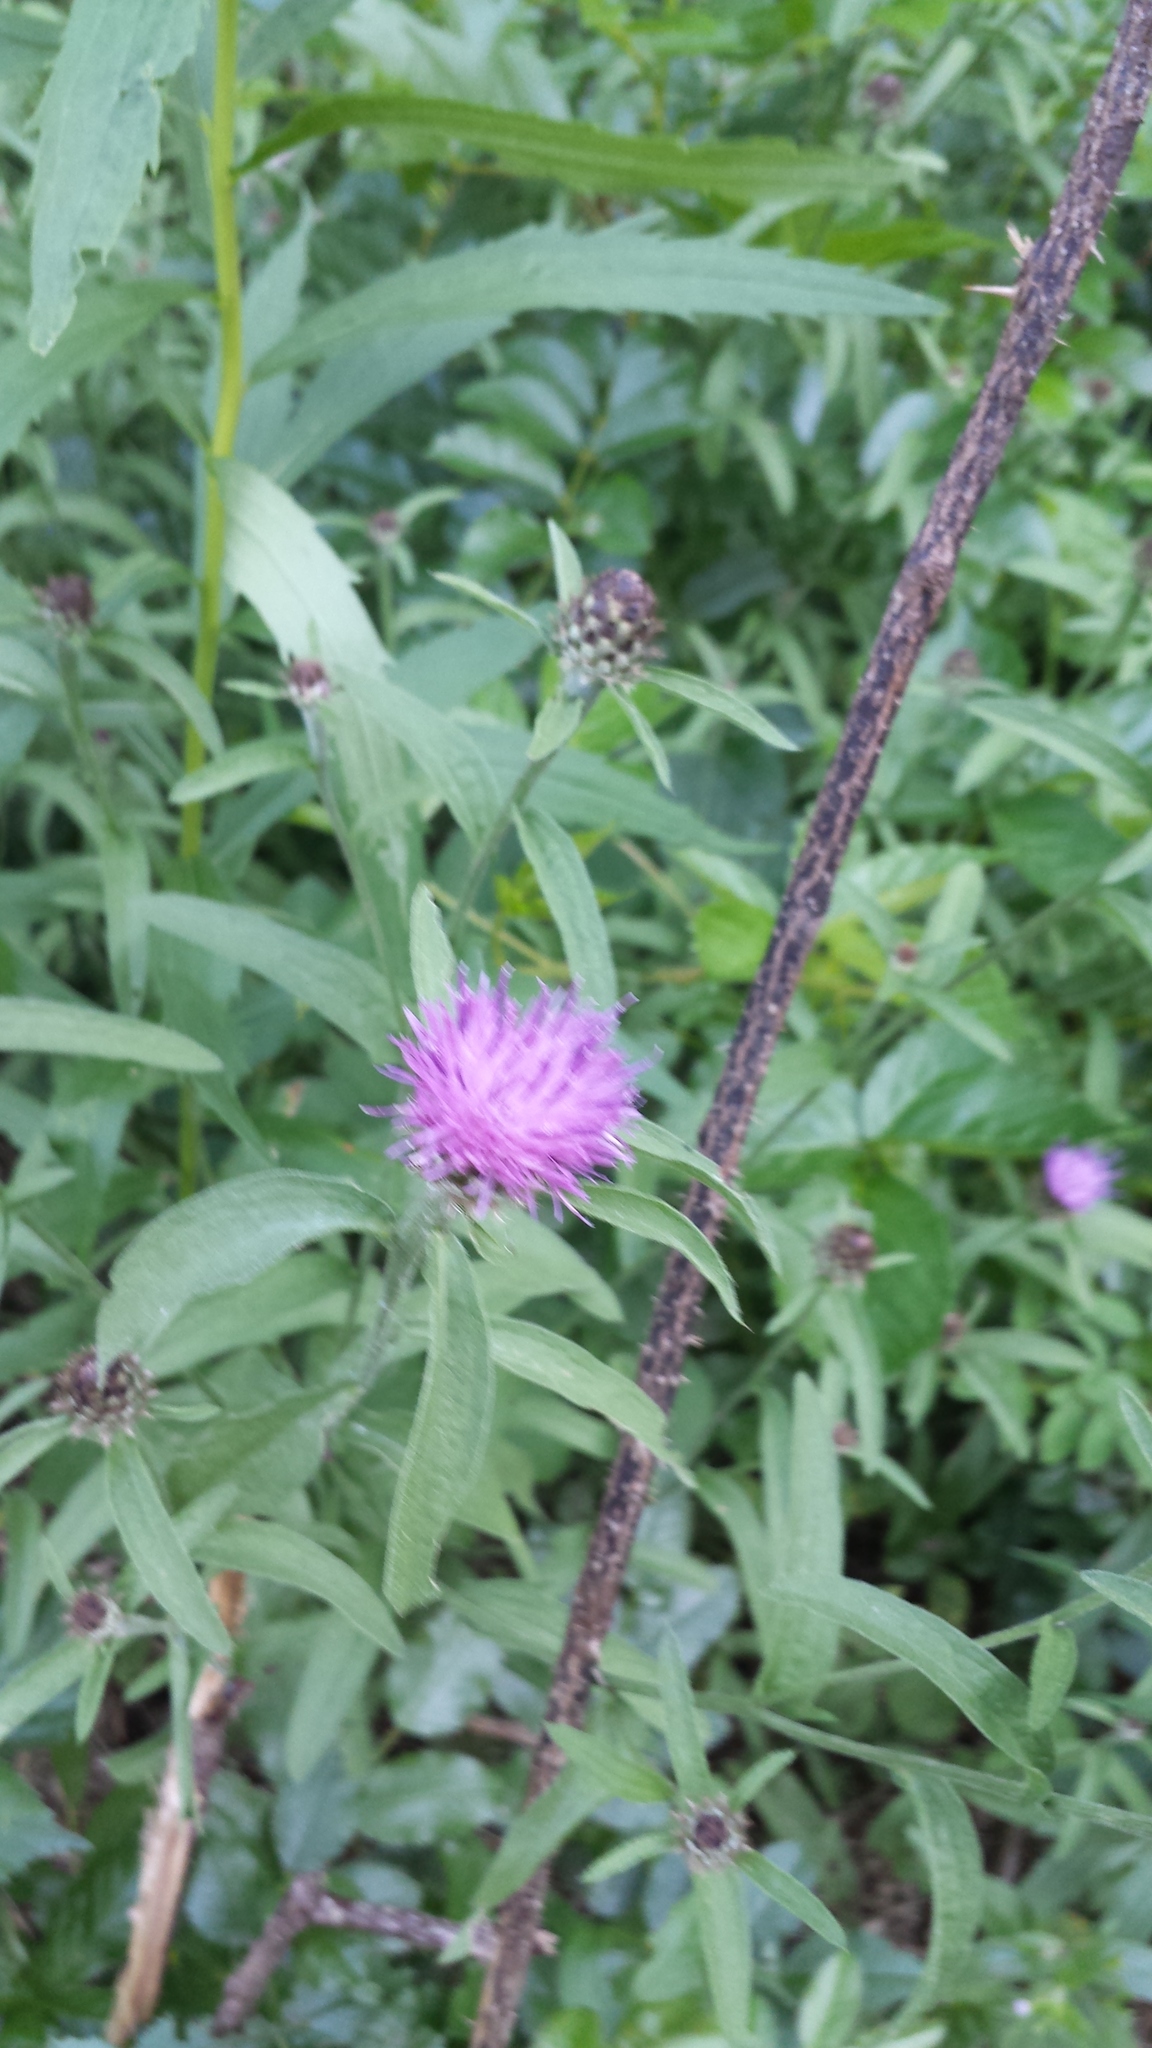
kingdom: Plantae
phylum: Tracheophyta
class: Magnoliopsida
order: Asterales
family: Asteraceae
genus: Centaurea
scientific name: Centaurea nigra
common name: Lesser knapweed
